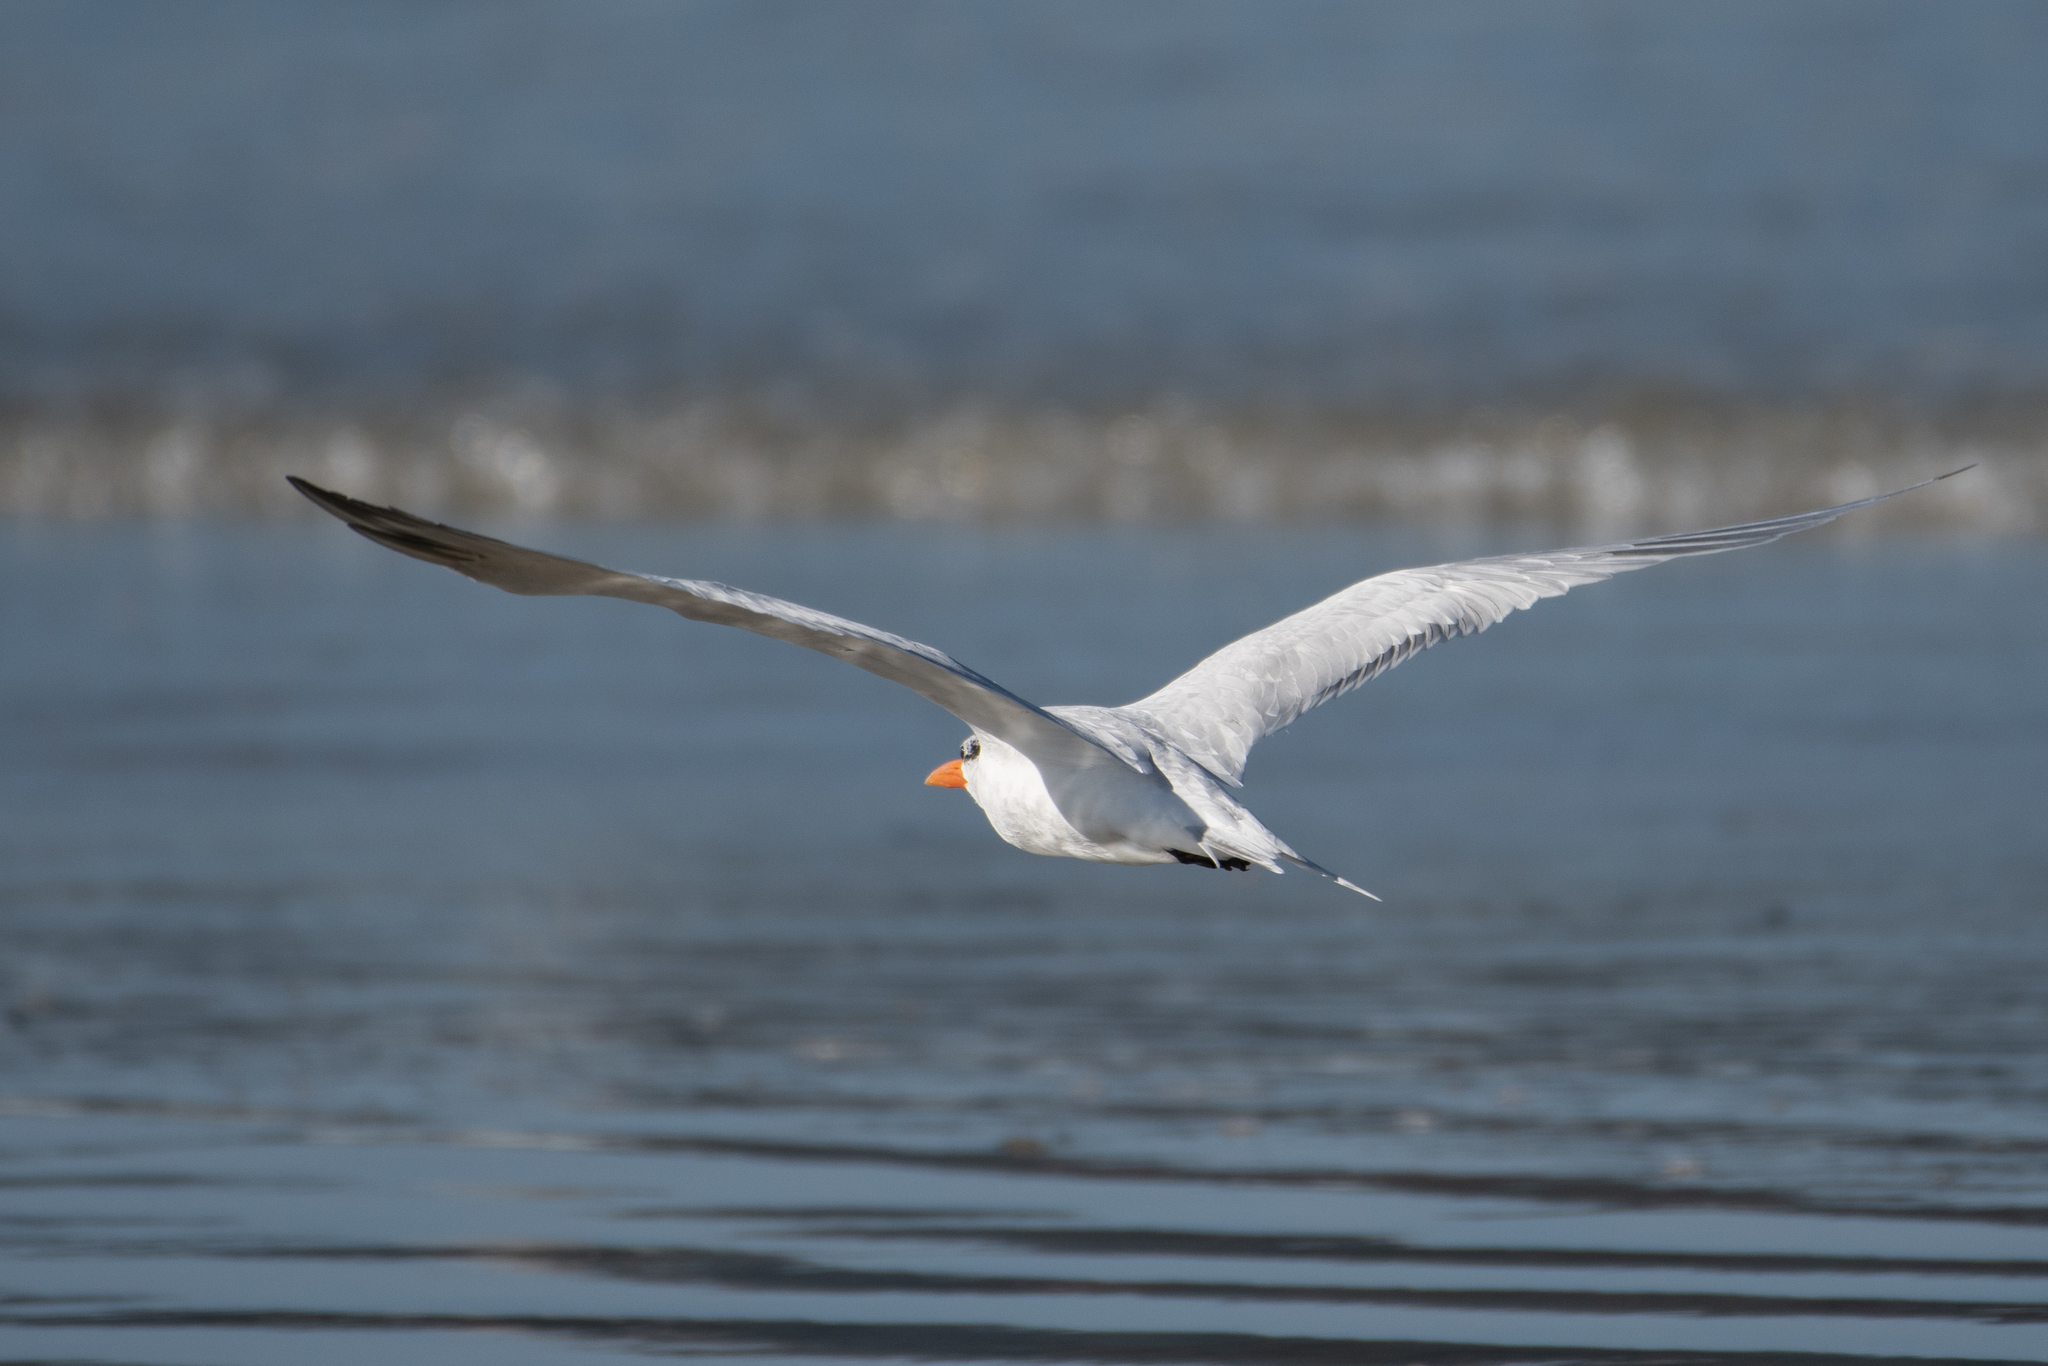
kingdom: Animalia
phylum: Chordata
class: Aves
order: Charadriiformes
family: Laridae
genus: Thalasseus
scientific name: Thalasseus maximus
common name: Royal tern
